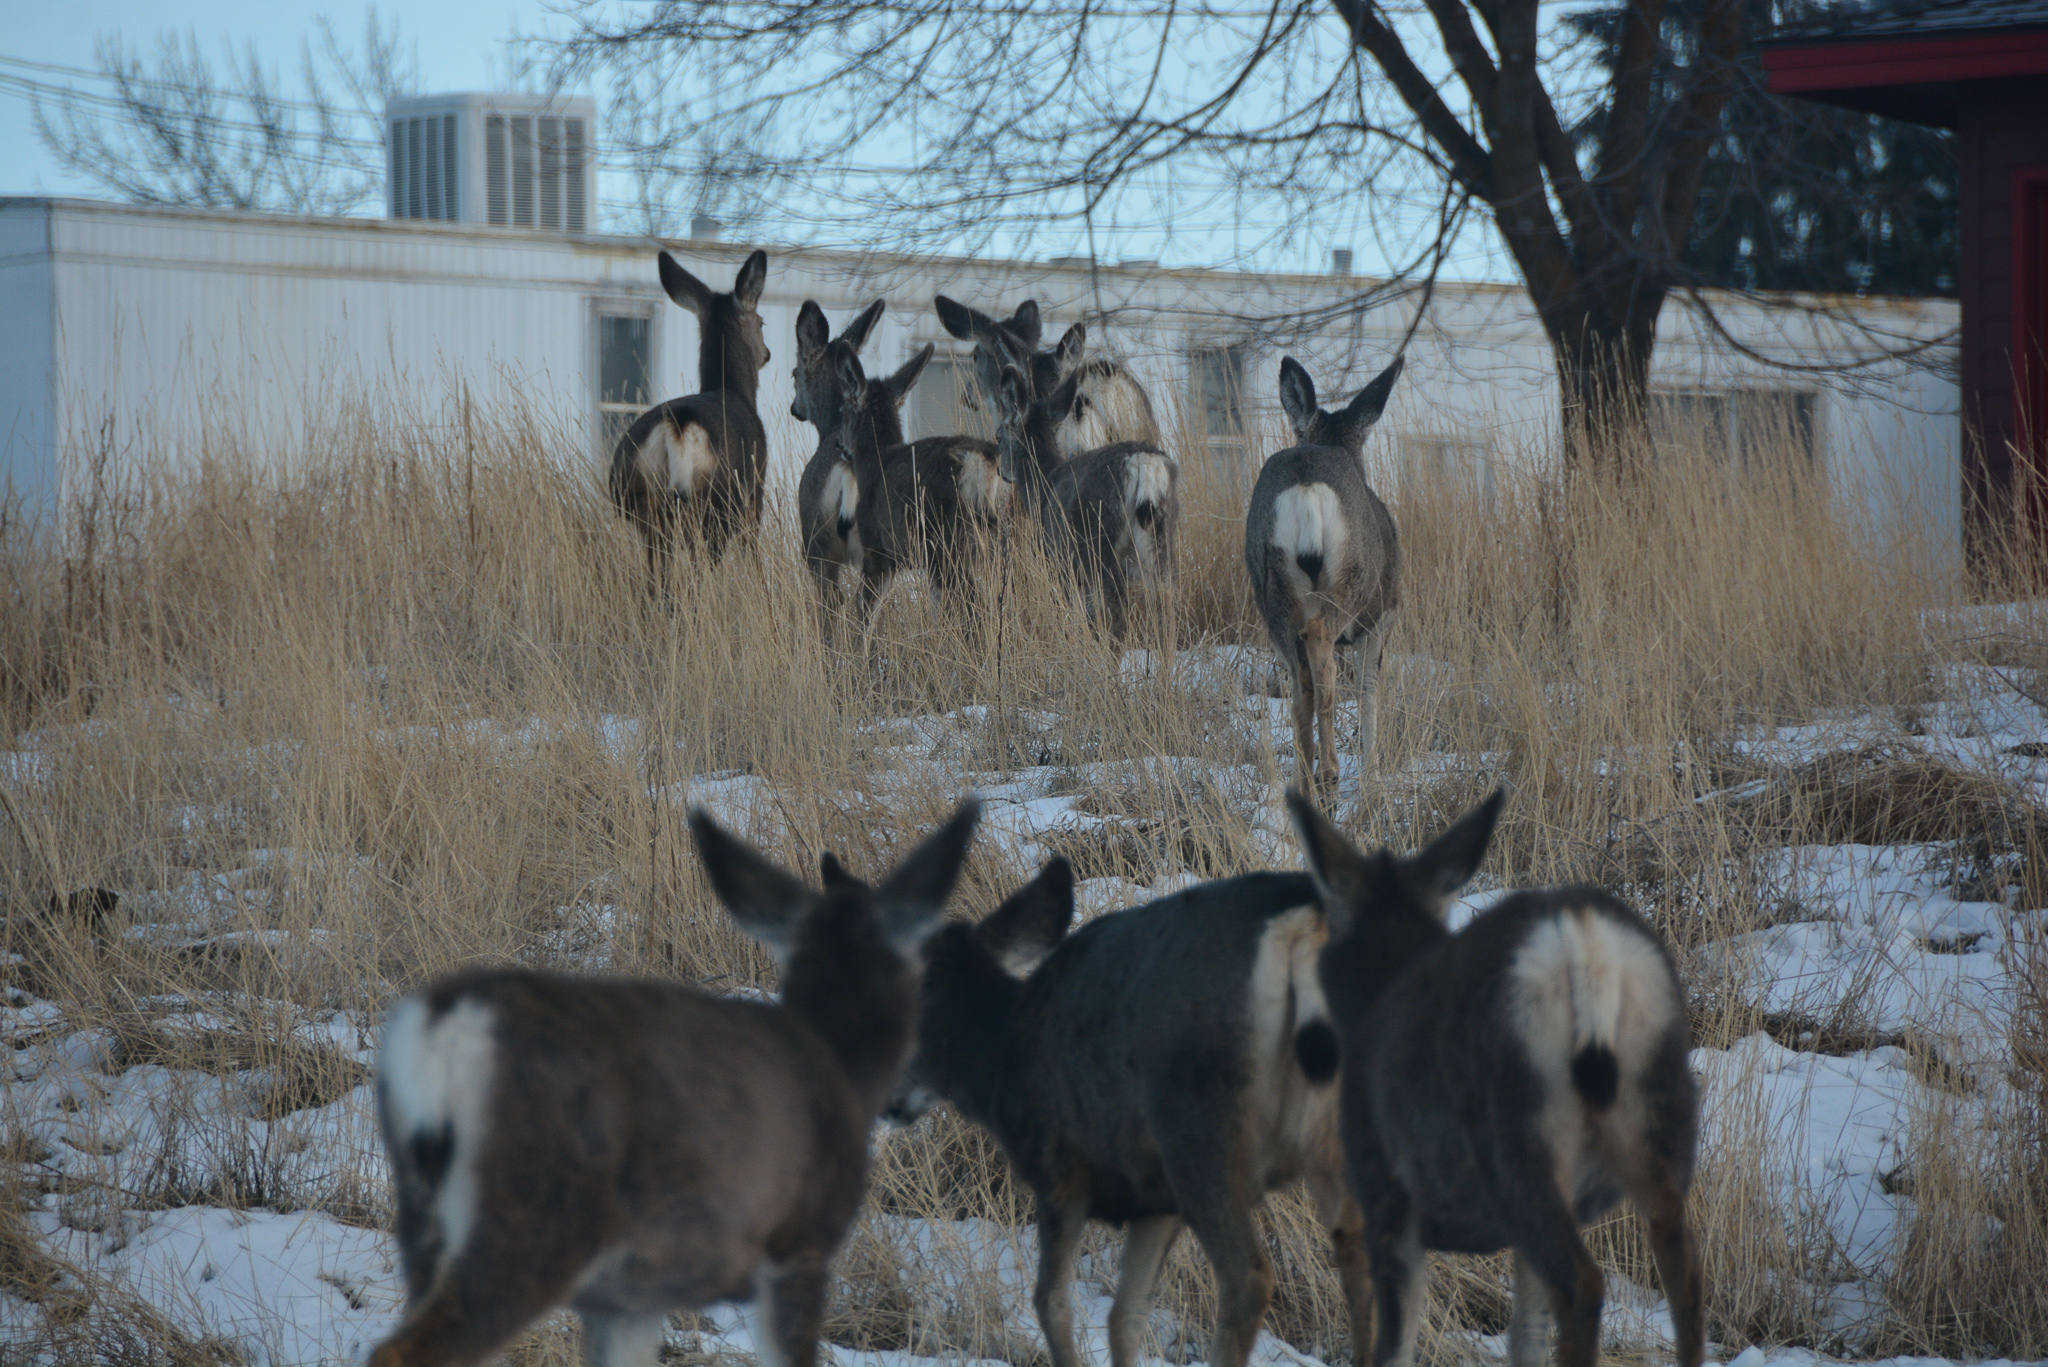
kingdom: Animalia
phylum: Chordata
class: Mammalia
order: Artiodactyla
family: Cervidae
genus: Odocoileus
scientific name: Odocoileus hemionus
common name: Mule deer
